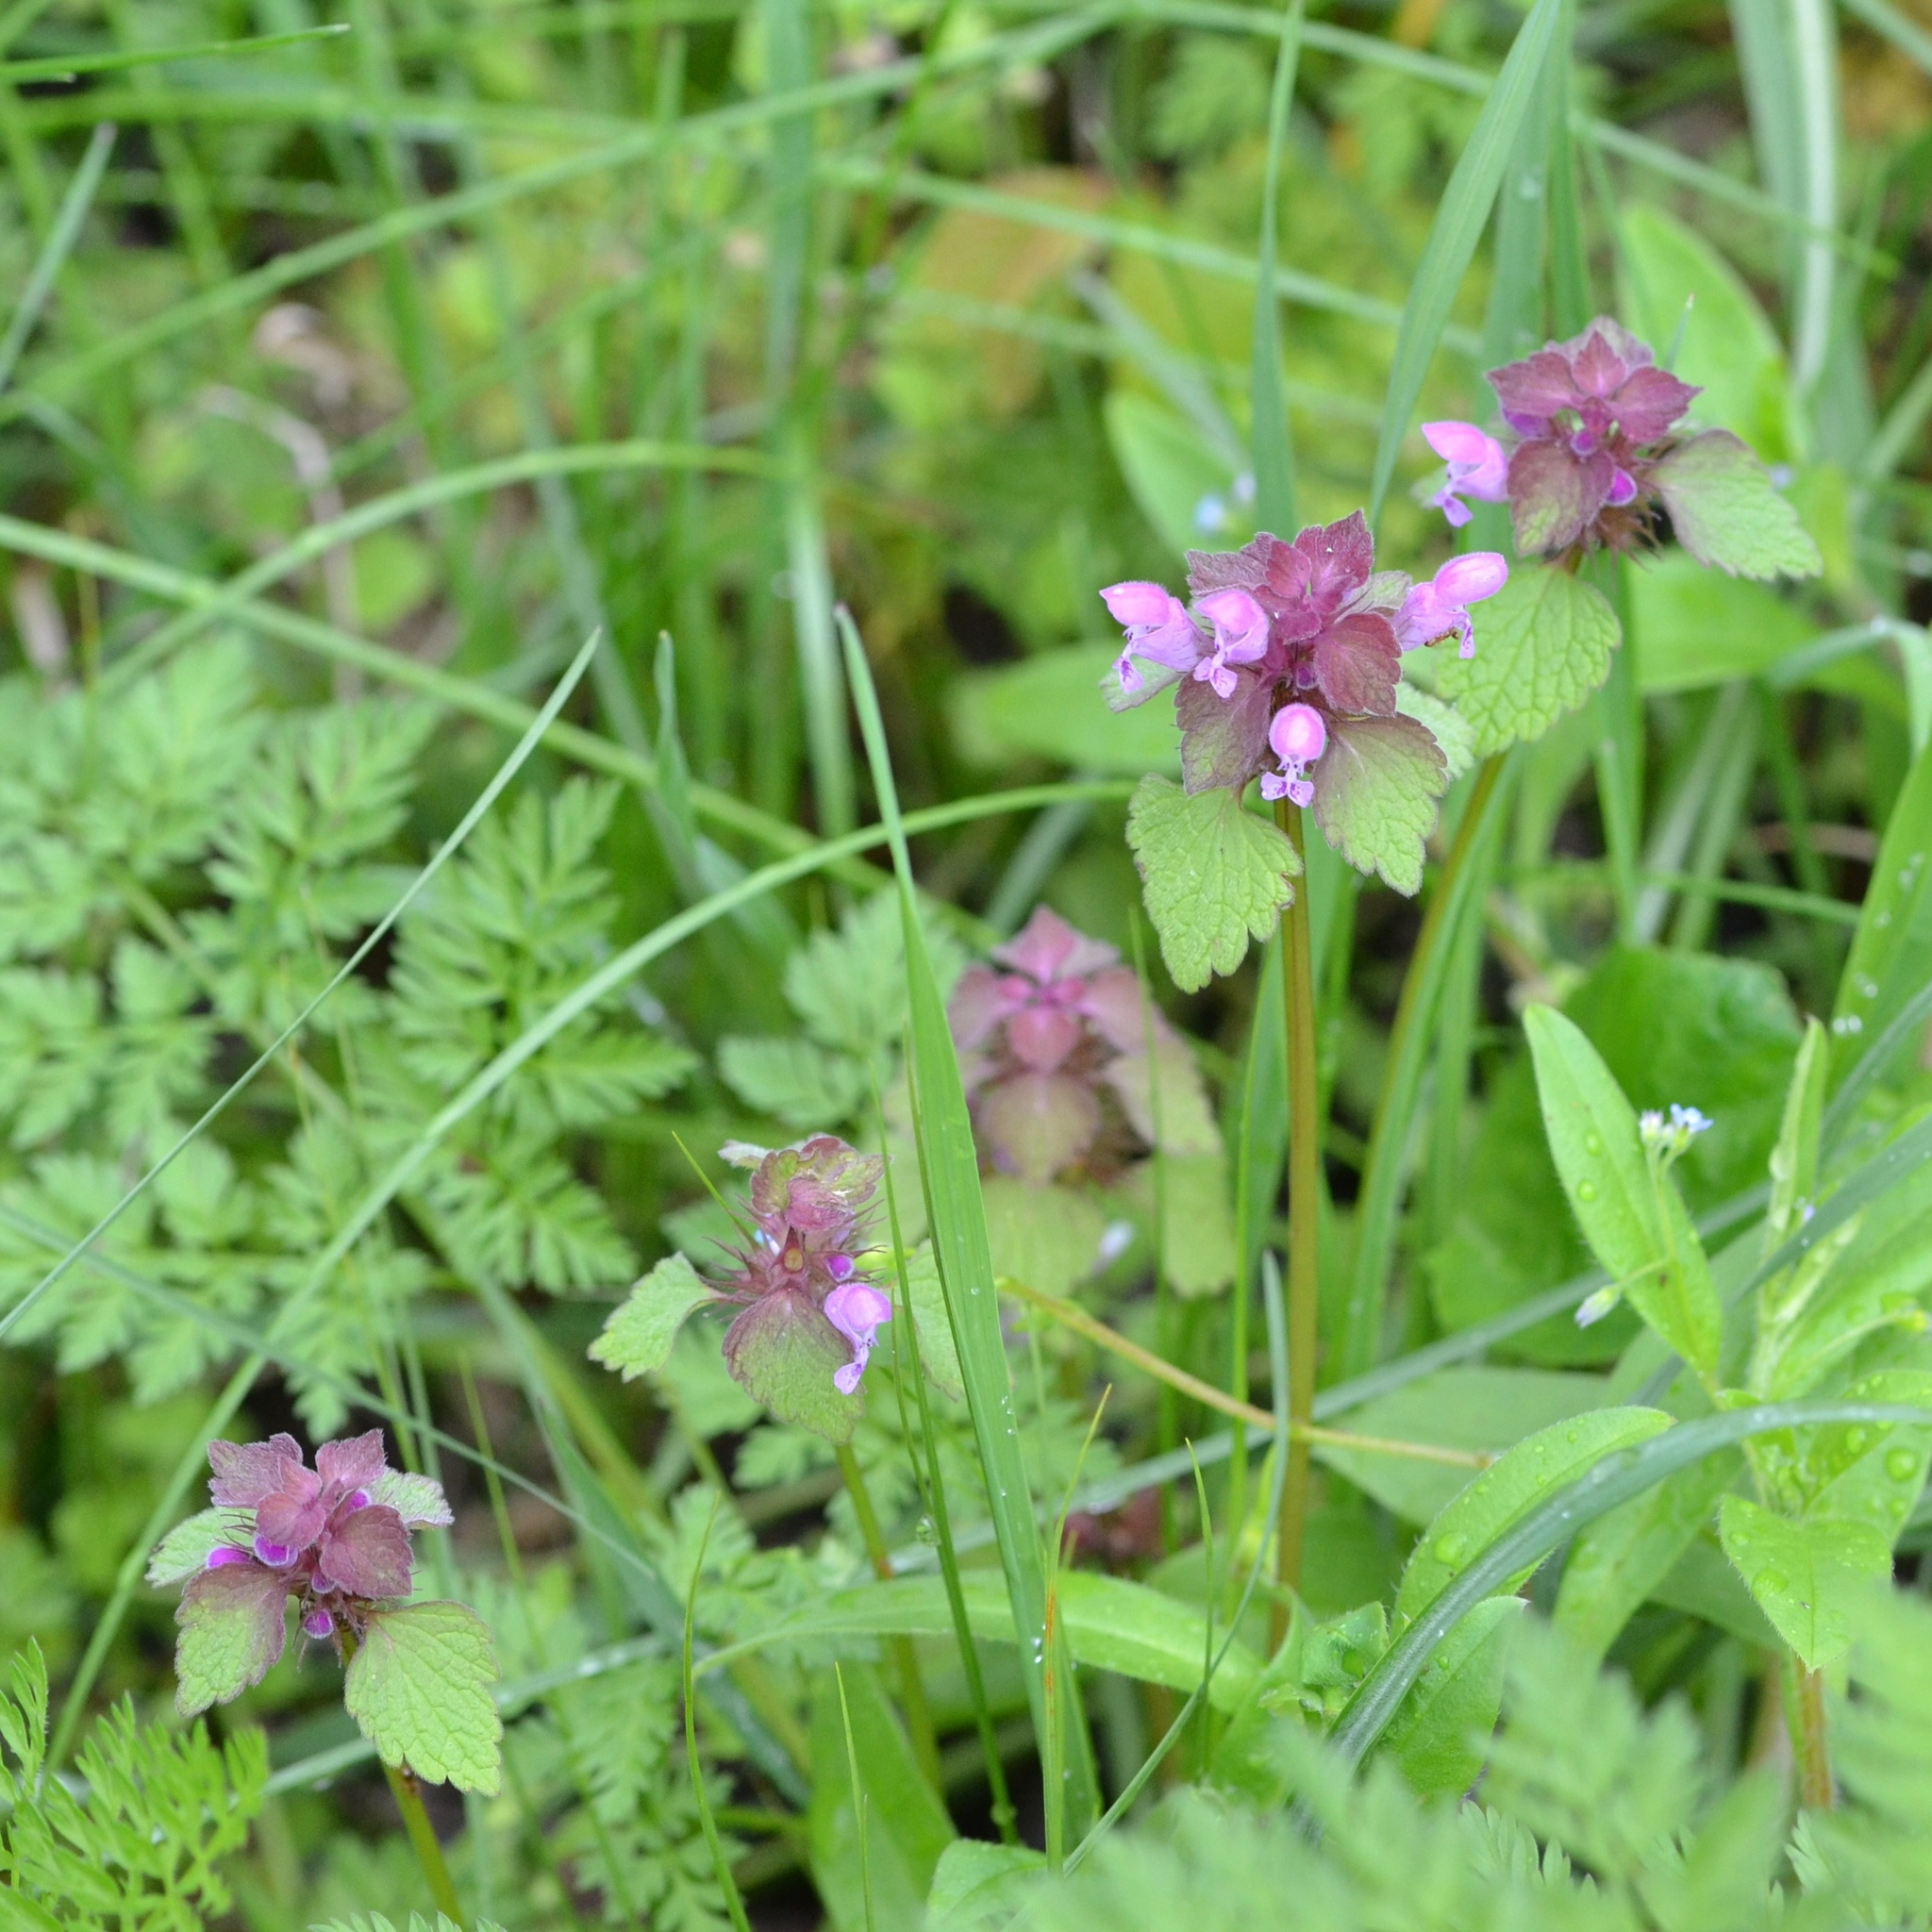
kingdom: Plantae
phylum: Tracheophyta
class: Magnoliopsida
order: Lamiales
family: Lamiaceae
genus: Lamium
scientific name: Lamium purpureum
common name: Red dead-nettle
